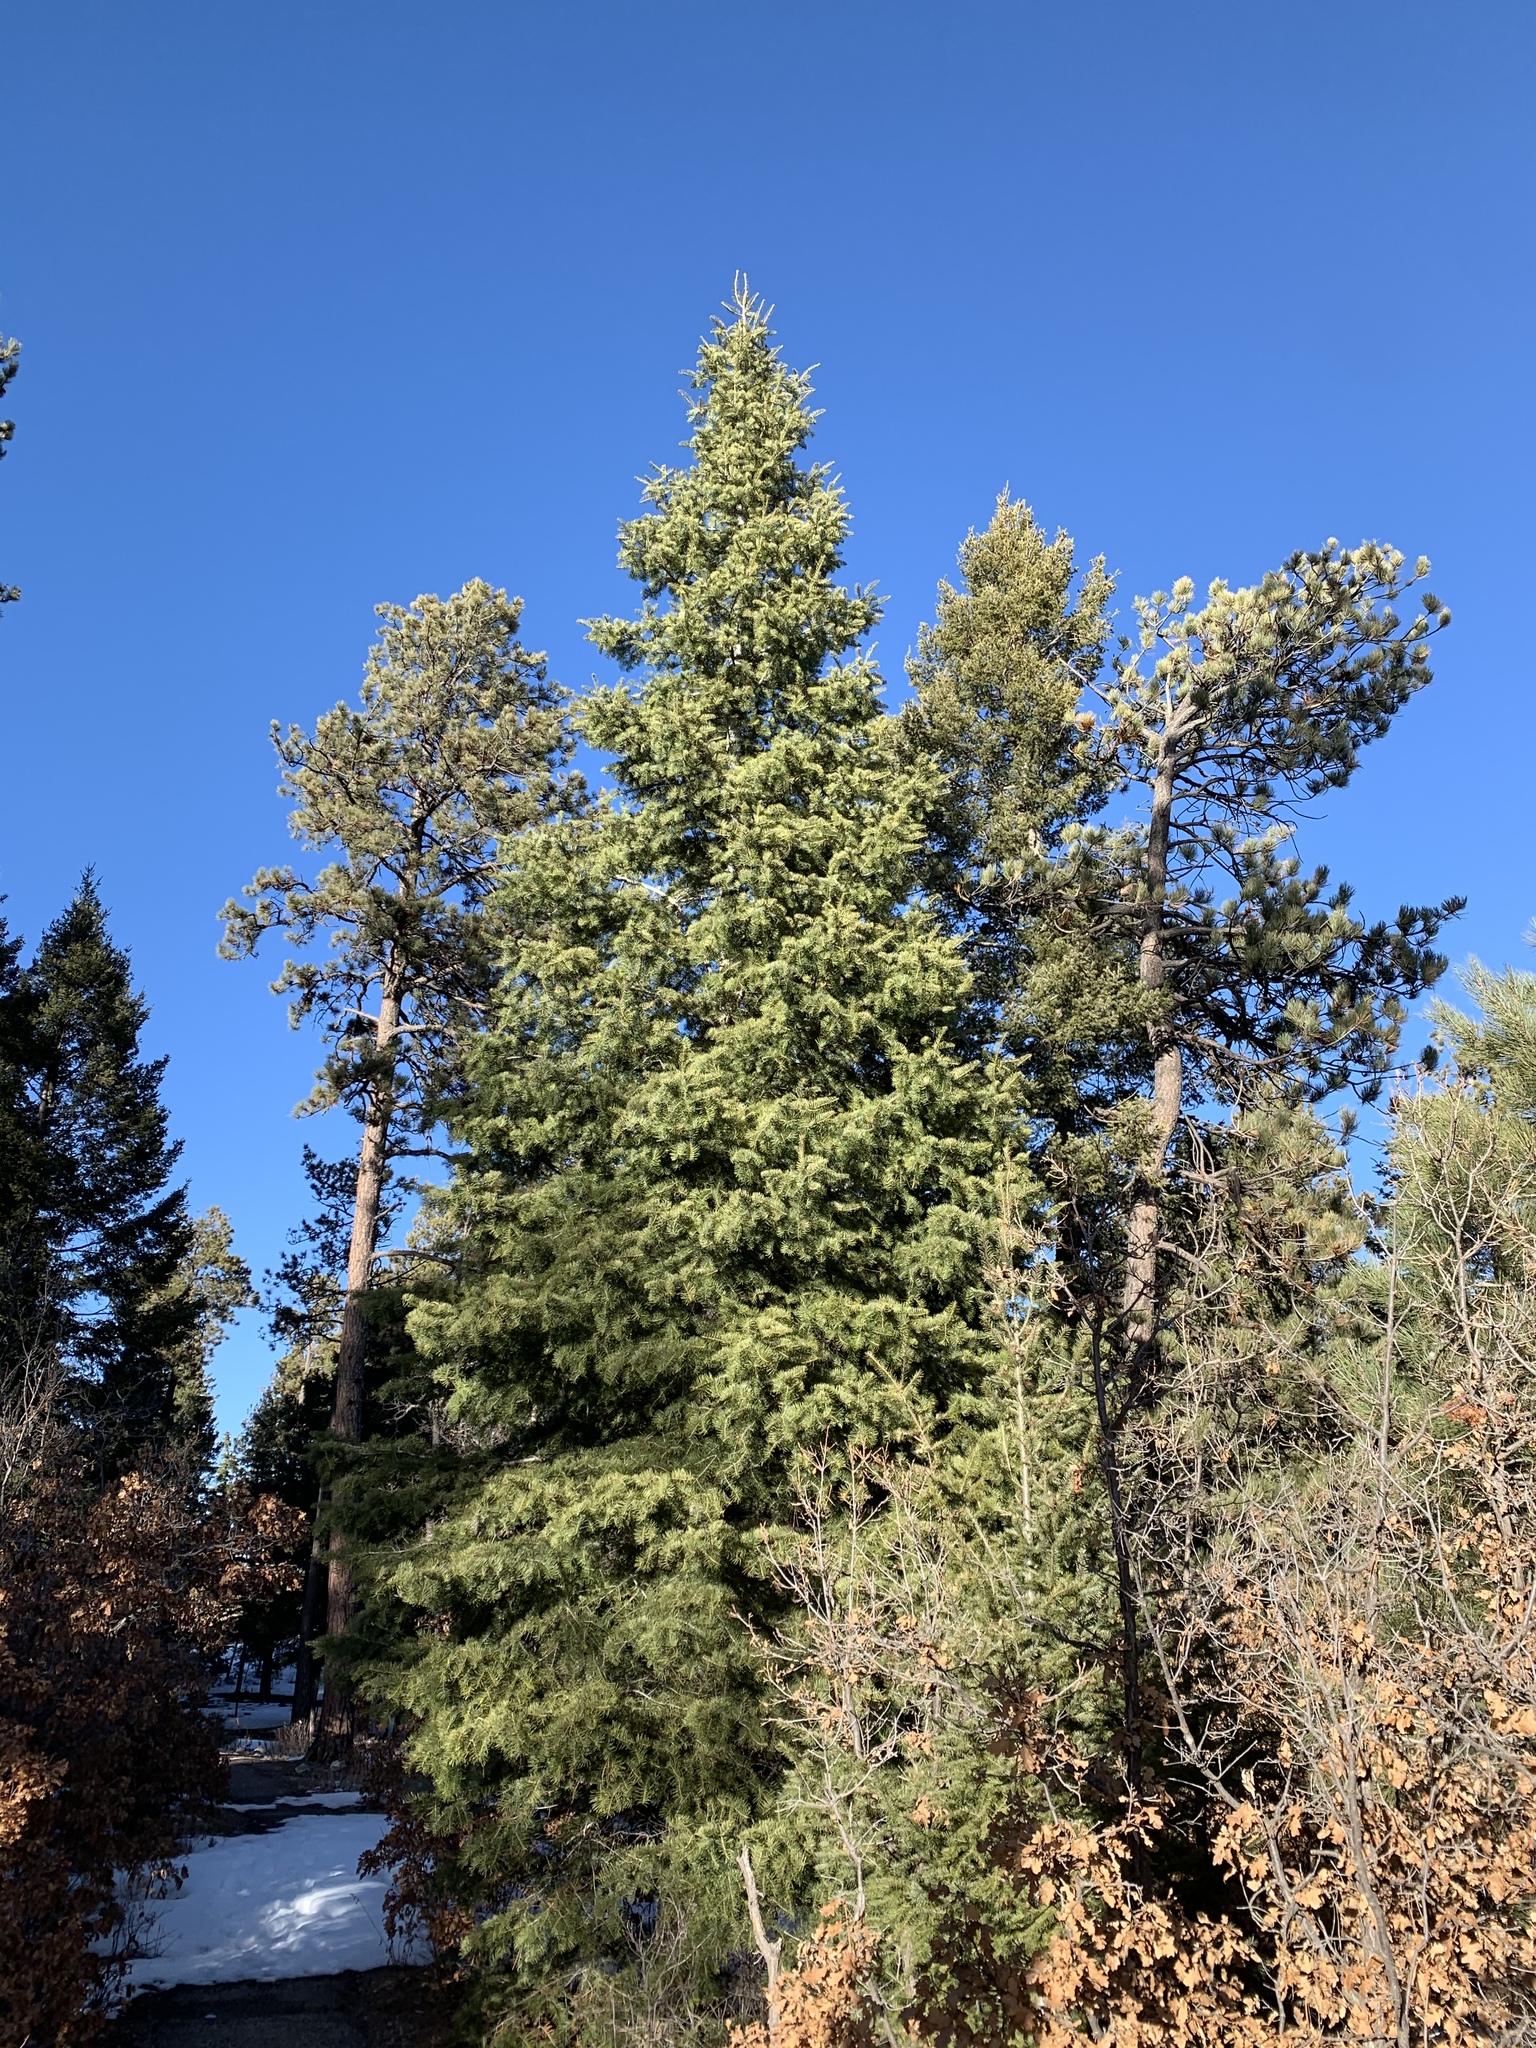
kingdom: Plantae
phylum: Tracheophyta
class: Pinopsida
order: Pinales
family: Pinaceae
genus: Abies
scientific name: Abies concolor
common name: Colorado fir
